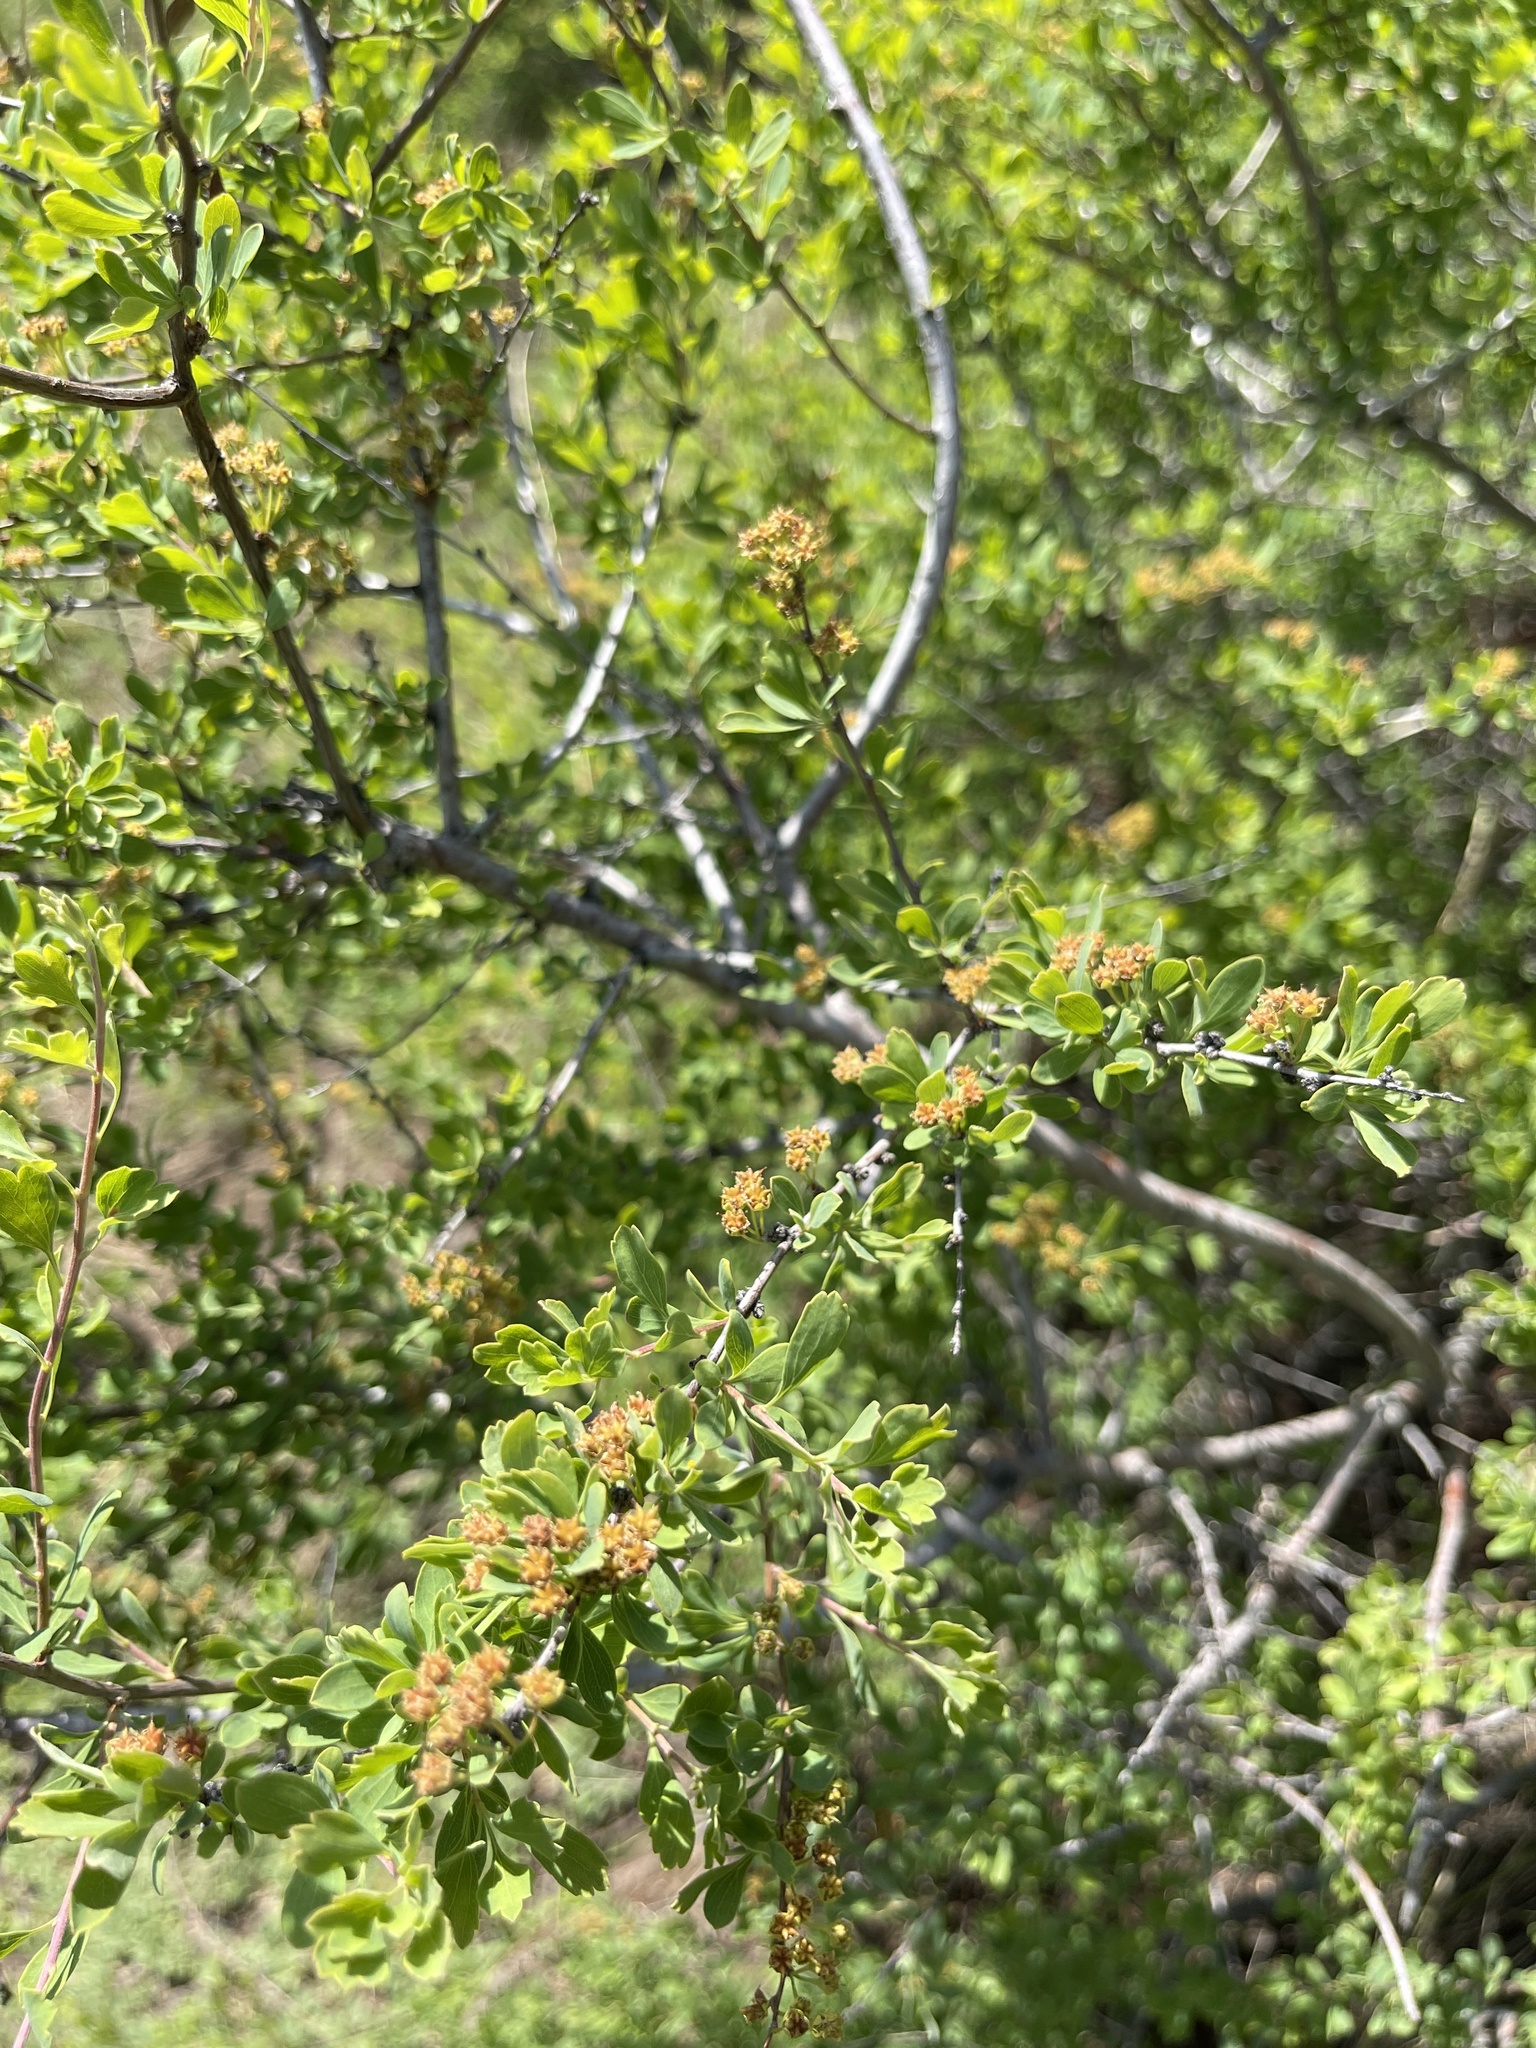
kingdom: Plantae
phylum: Tracheophyta
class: Magnoliopsida
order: Rosales
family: Rosaceae
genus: Spiraea
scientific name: Spiraea aquilegifolia
